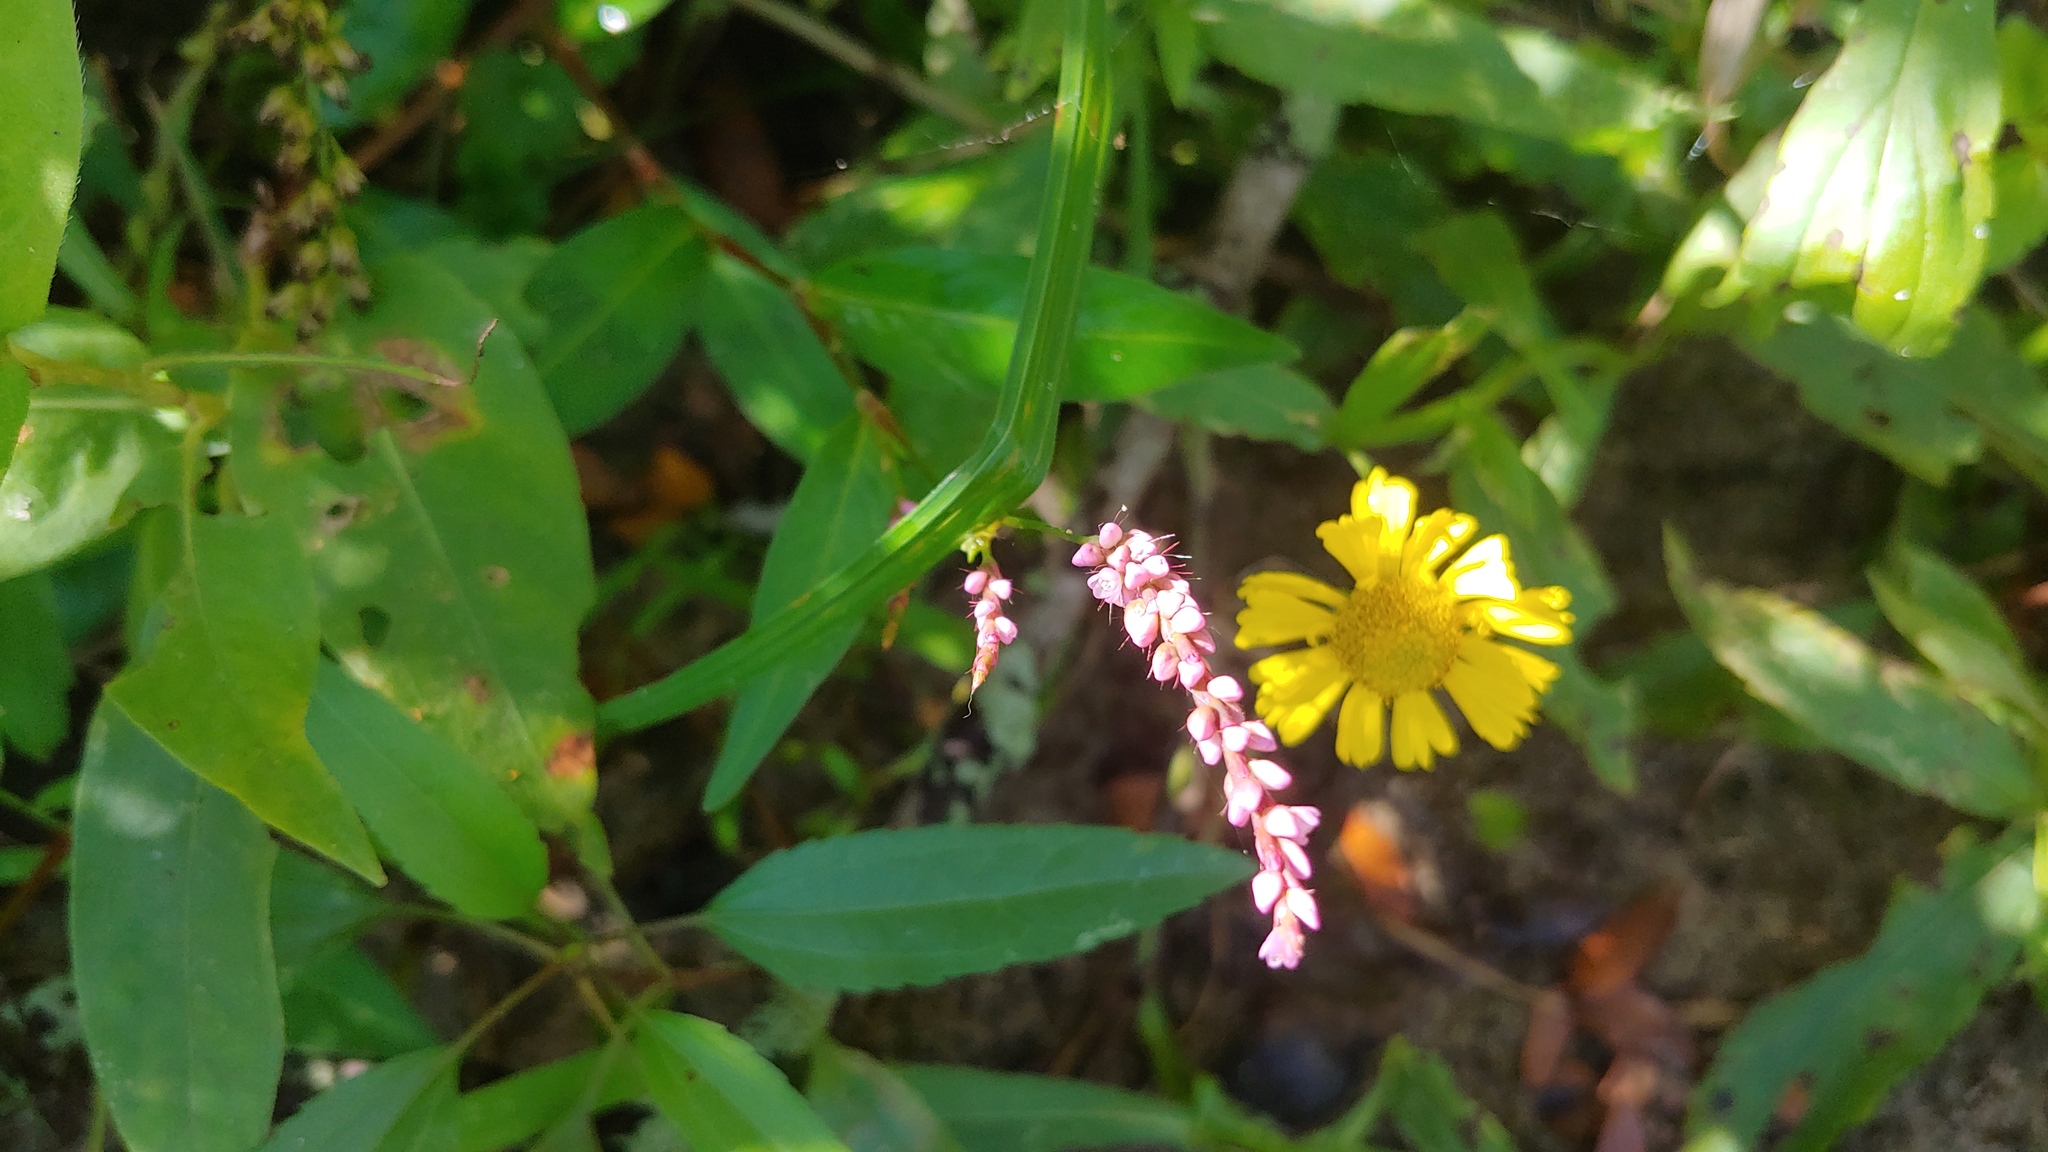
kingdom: Plantae
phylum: Tracheophyta
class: Magnoliopsida
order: Caryophyllales
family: Polygonaceae
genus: Persicaria
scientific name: Persicaria longiseta
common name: Bristly lady's-thumb
